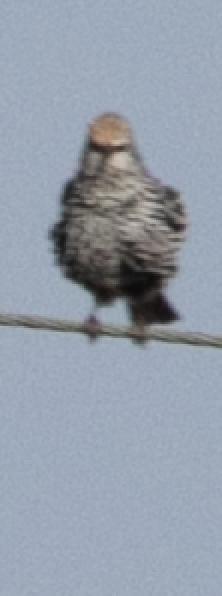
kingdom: Animalia
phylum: Chordata
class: Aves
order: Passeriformes
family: Sturnidae
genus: Sturnus
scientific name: Sturnus vulgaris
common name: Common starling
